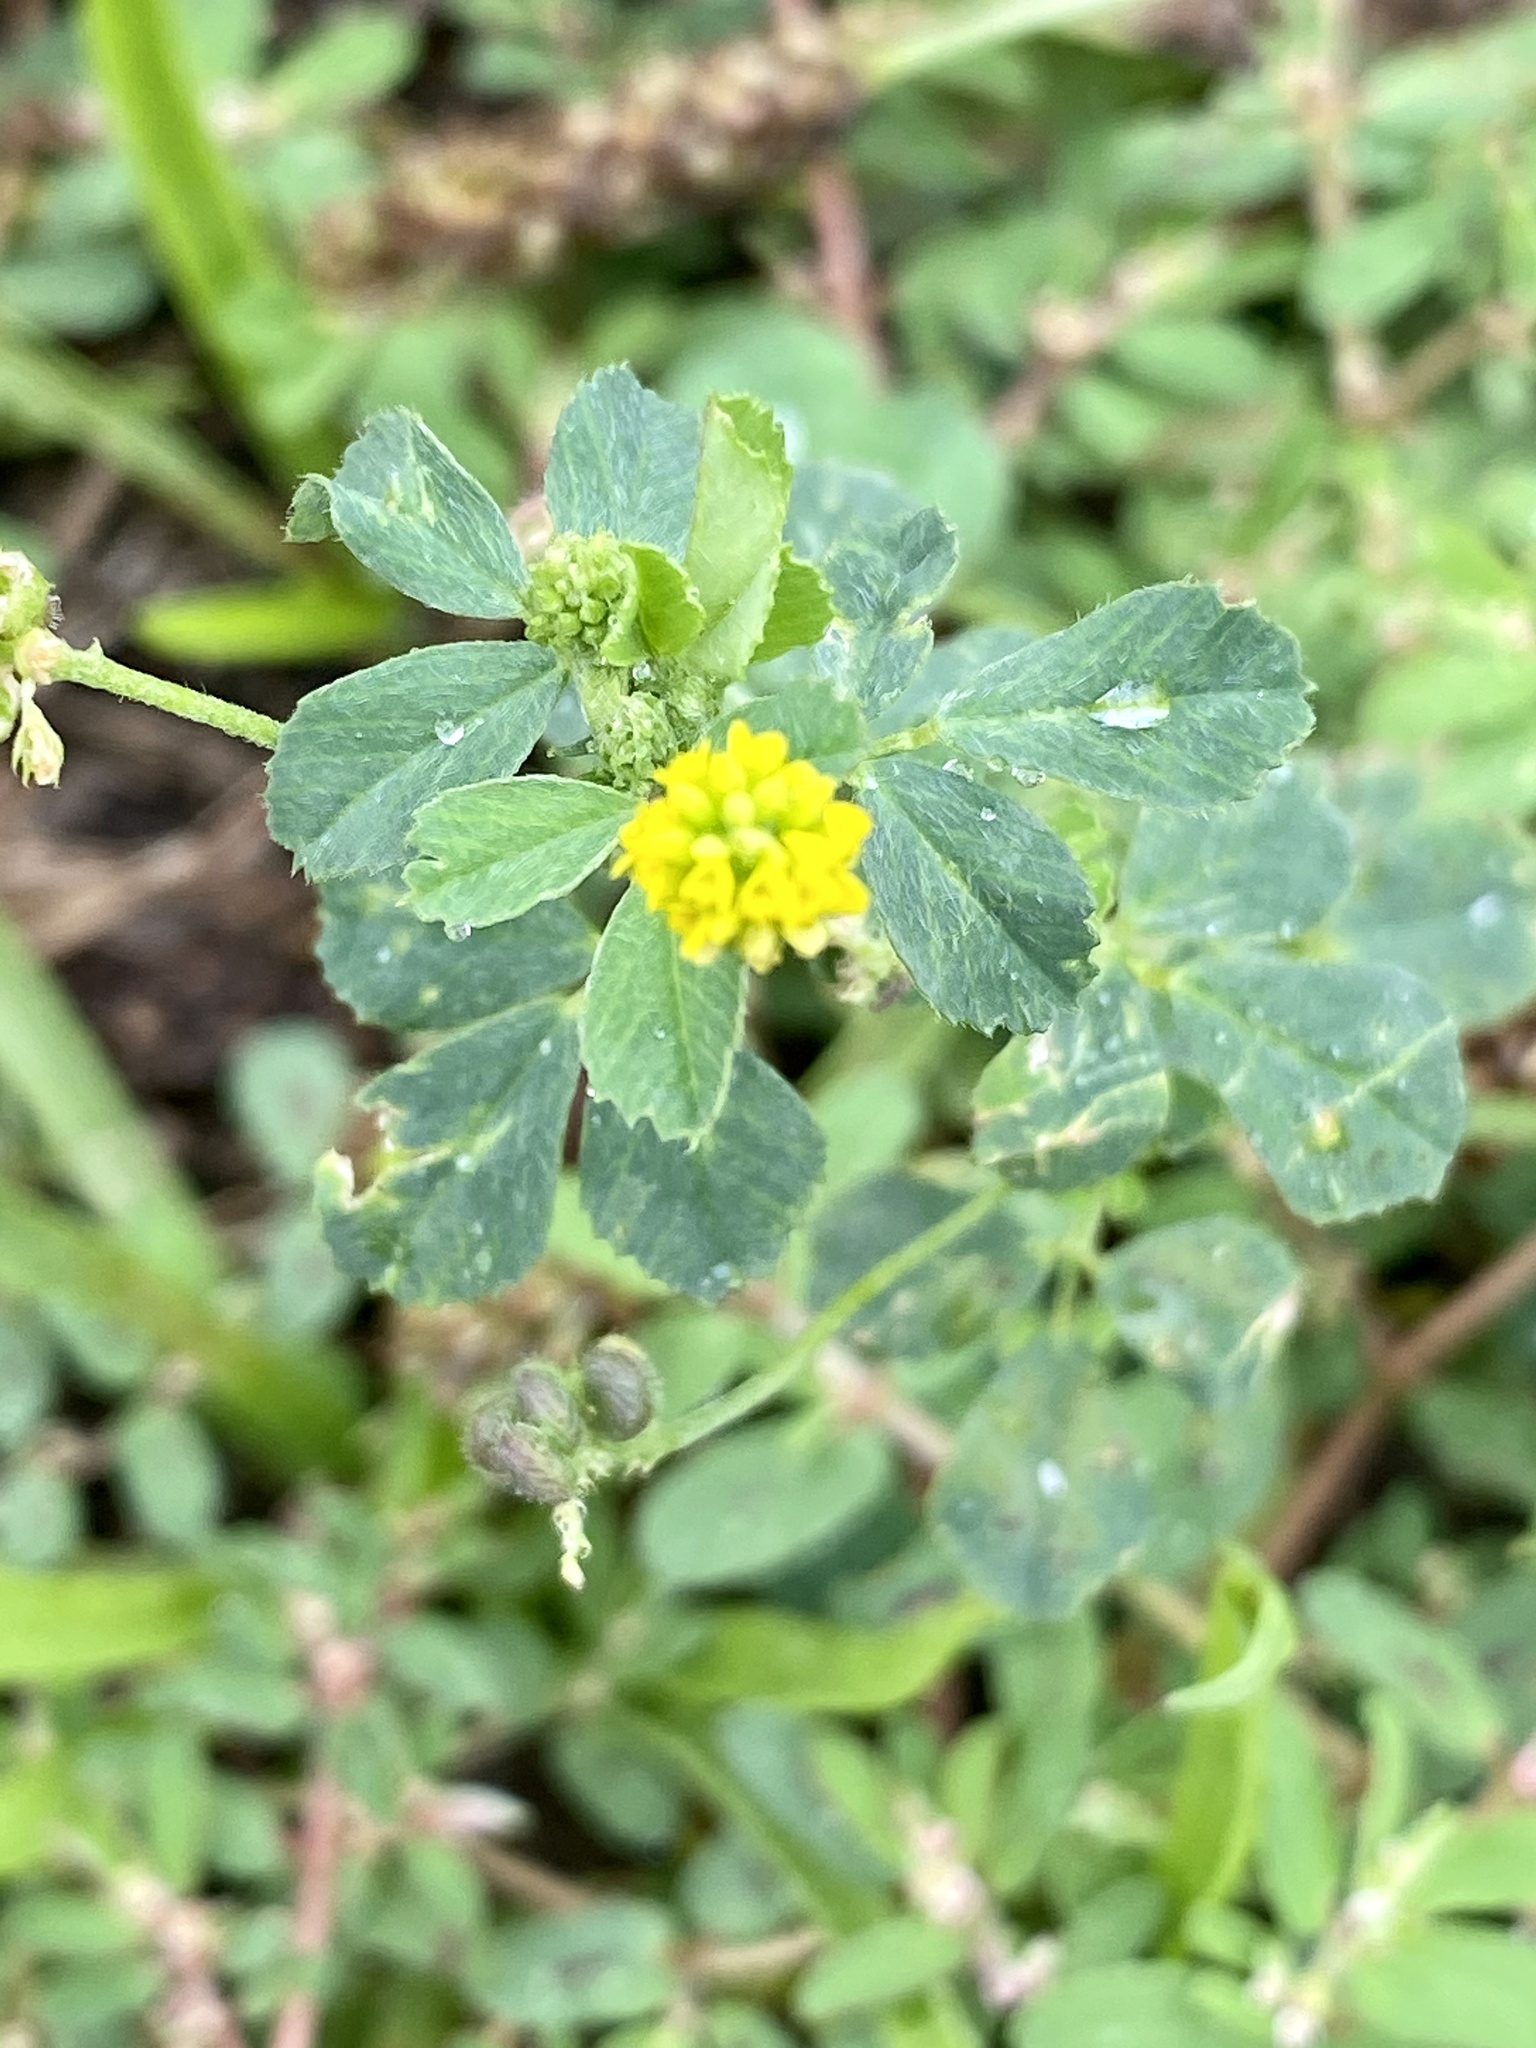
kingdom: Plantae
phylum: Tracheophyta
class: Magnoliopsida
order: Fabales
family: Fabaceae
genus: Medicago
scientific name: Medicago lupulina
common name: Black medick
